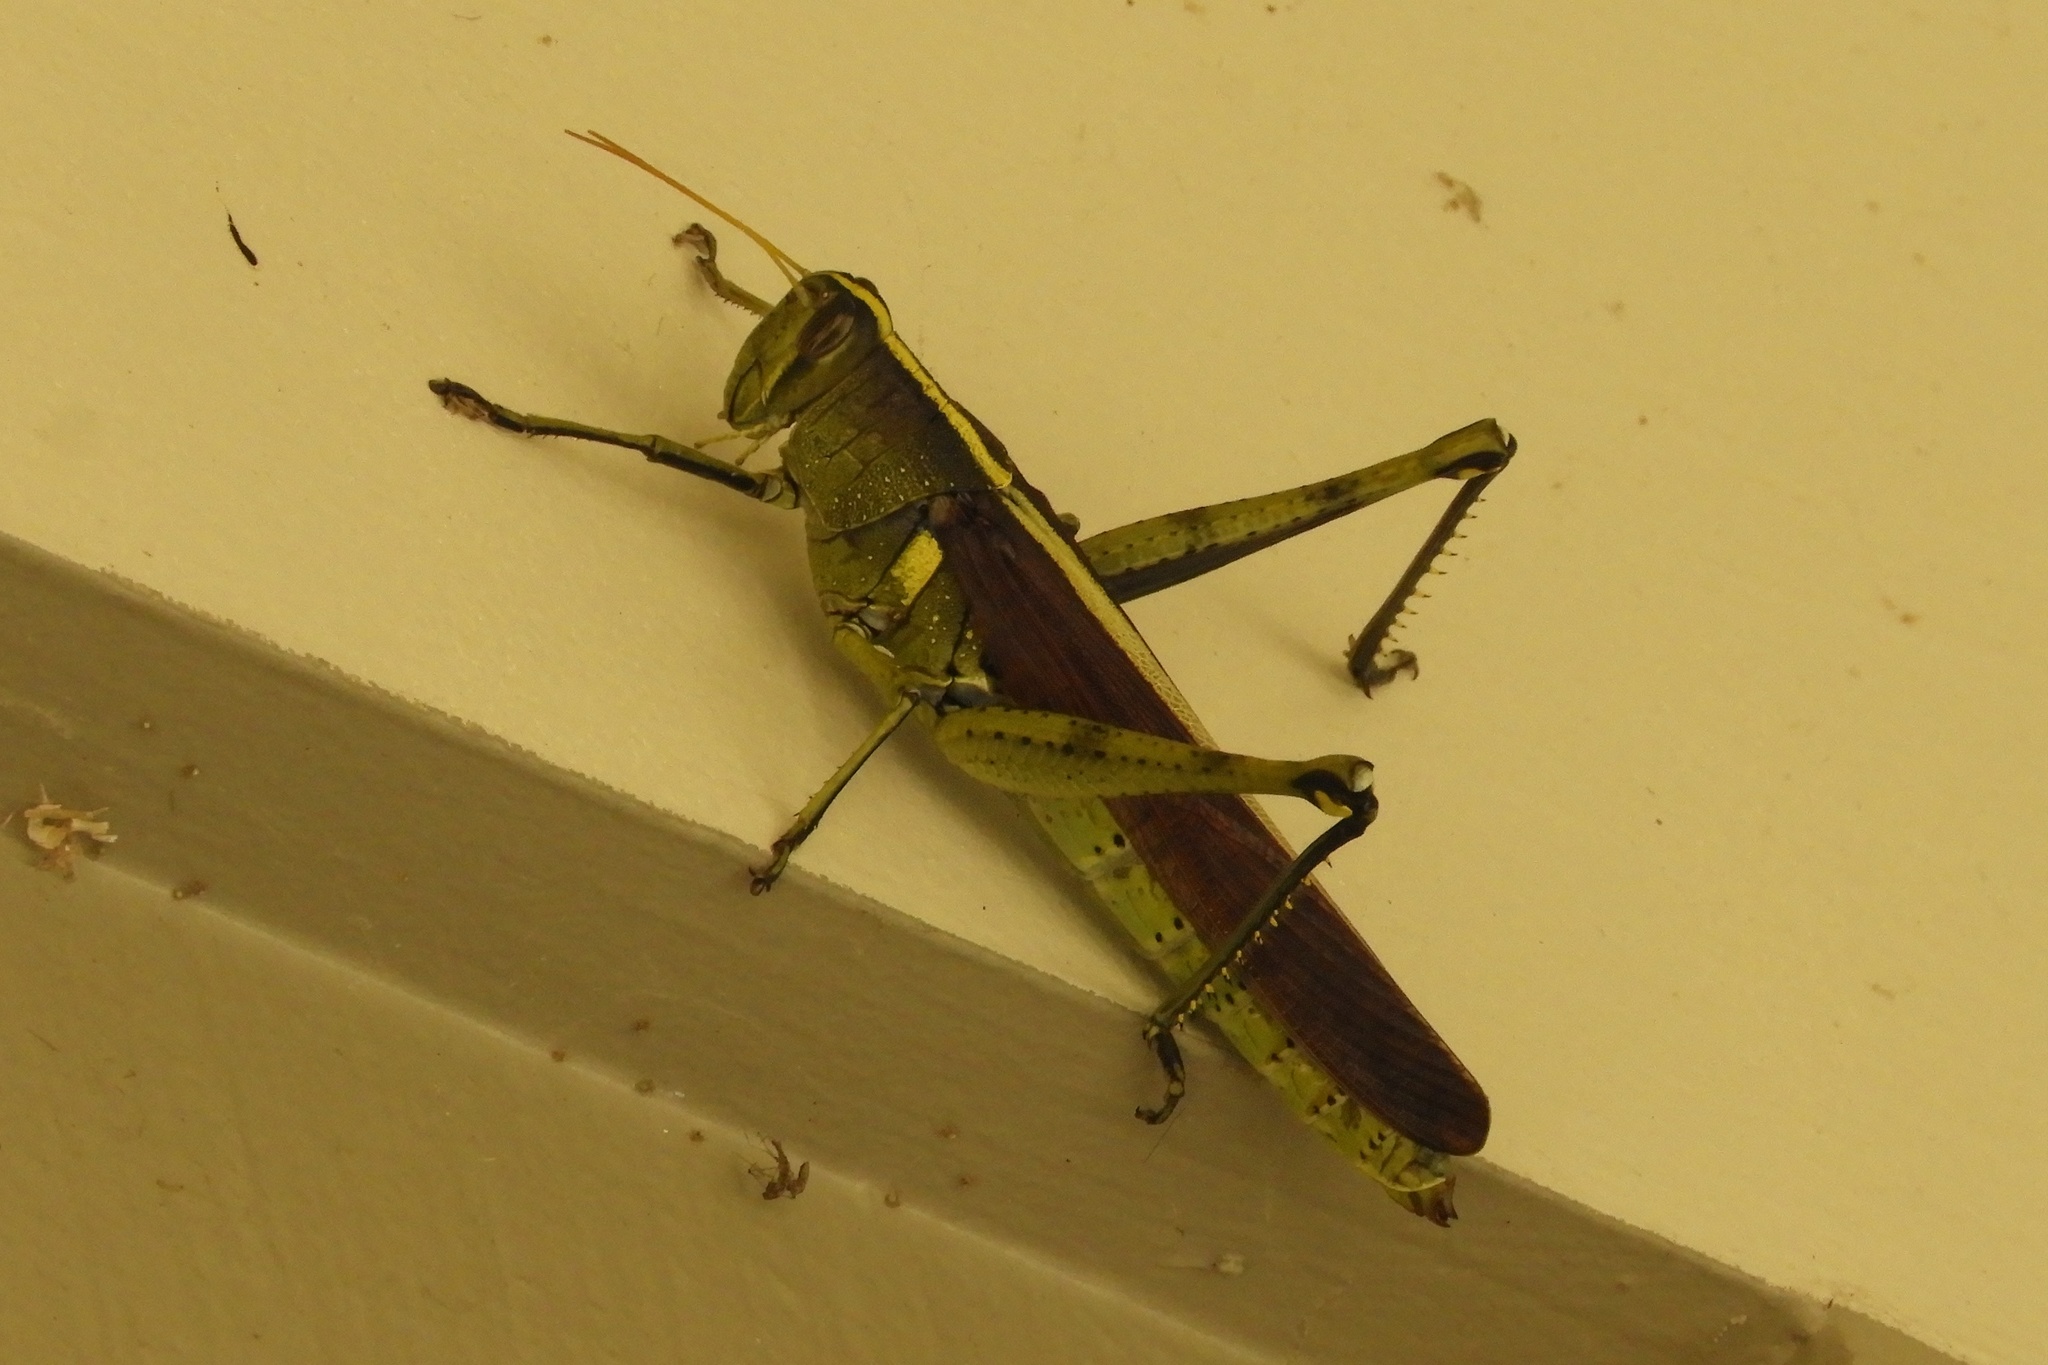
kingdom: Animalia
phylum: Arthropoda
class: Insecta
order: Orthoptera
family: Acrididae
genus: Schistocerca
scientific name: Schistocerca obscura
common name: Obscure bird grasshopper
